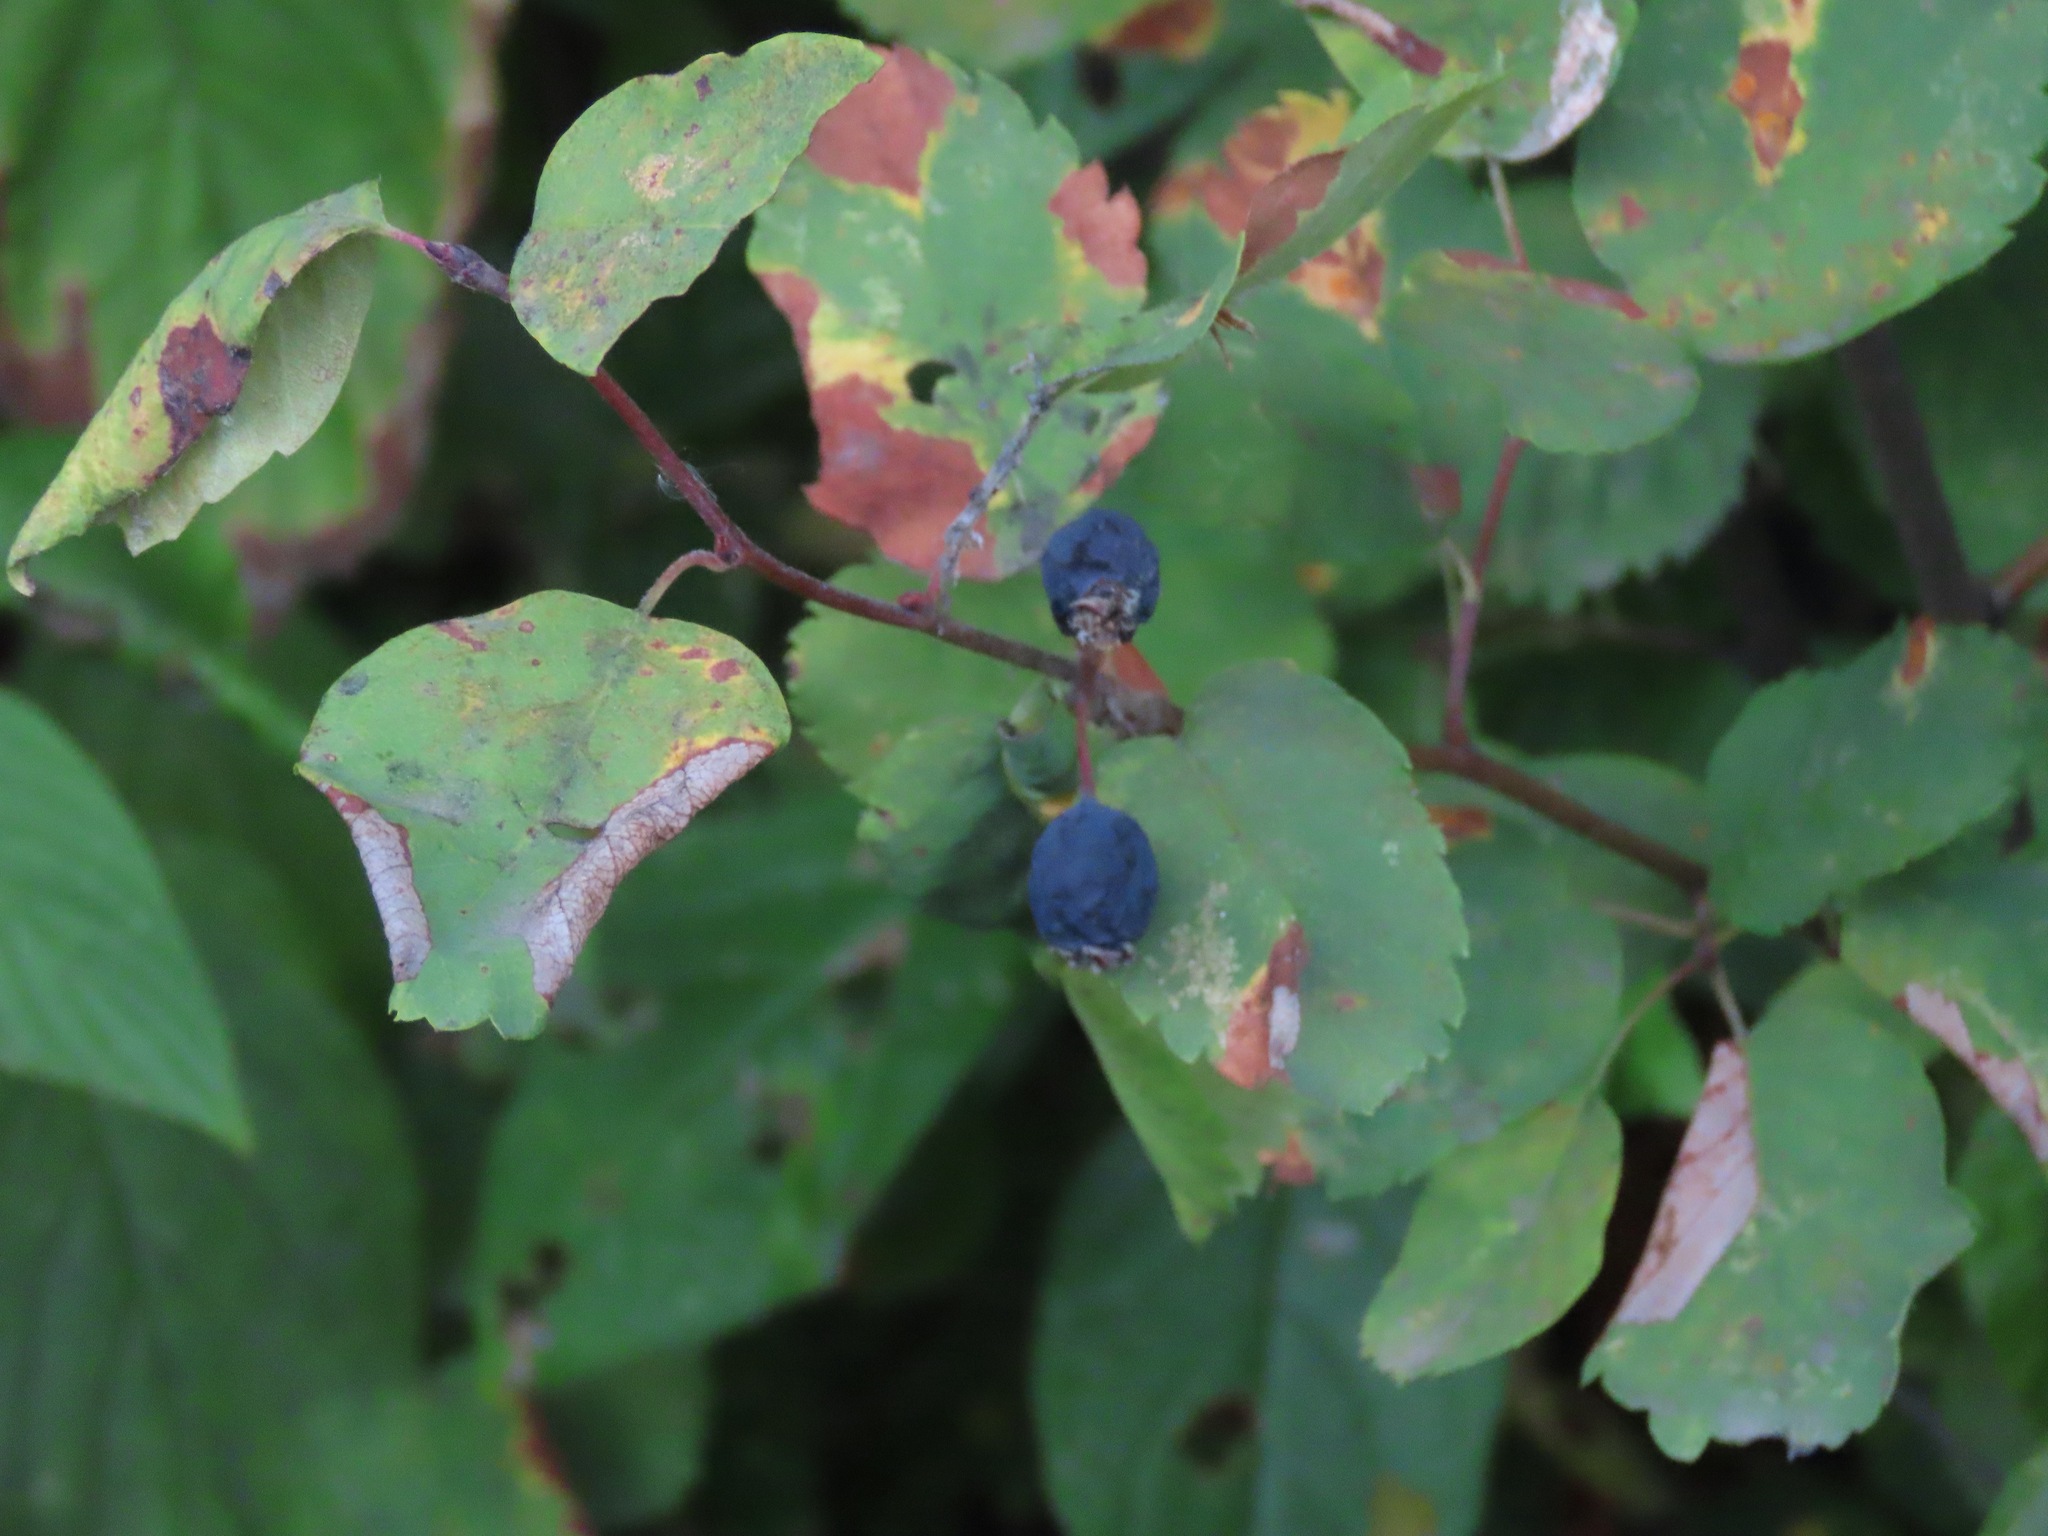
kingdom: Plantae
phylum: Tracheophyta
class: Magnoliopsida
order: Rosales
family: Rosaceae
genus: Amelanchier
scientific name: Amelanchier alnifolia
